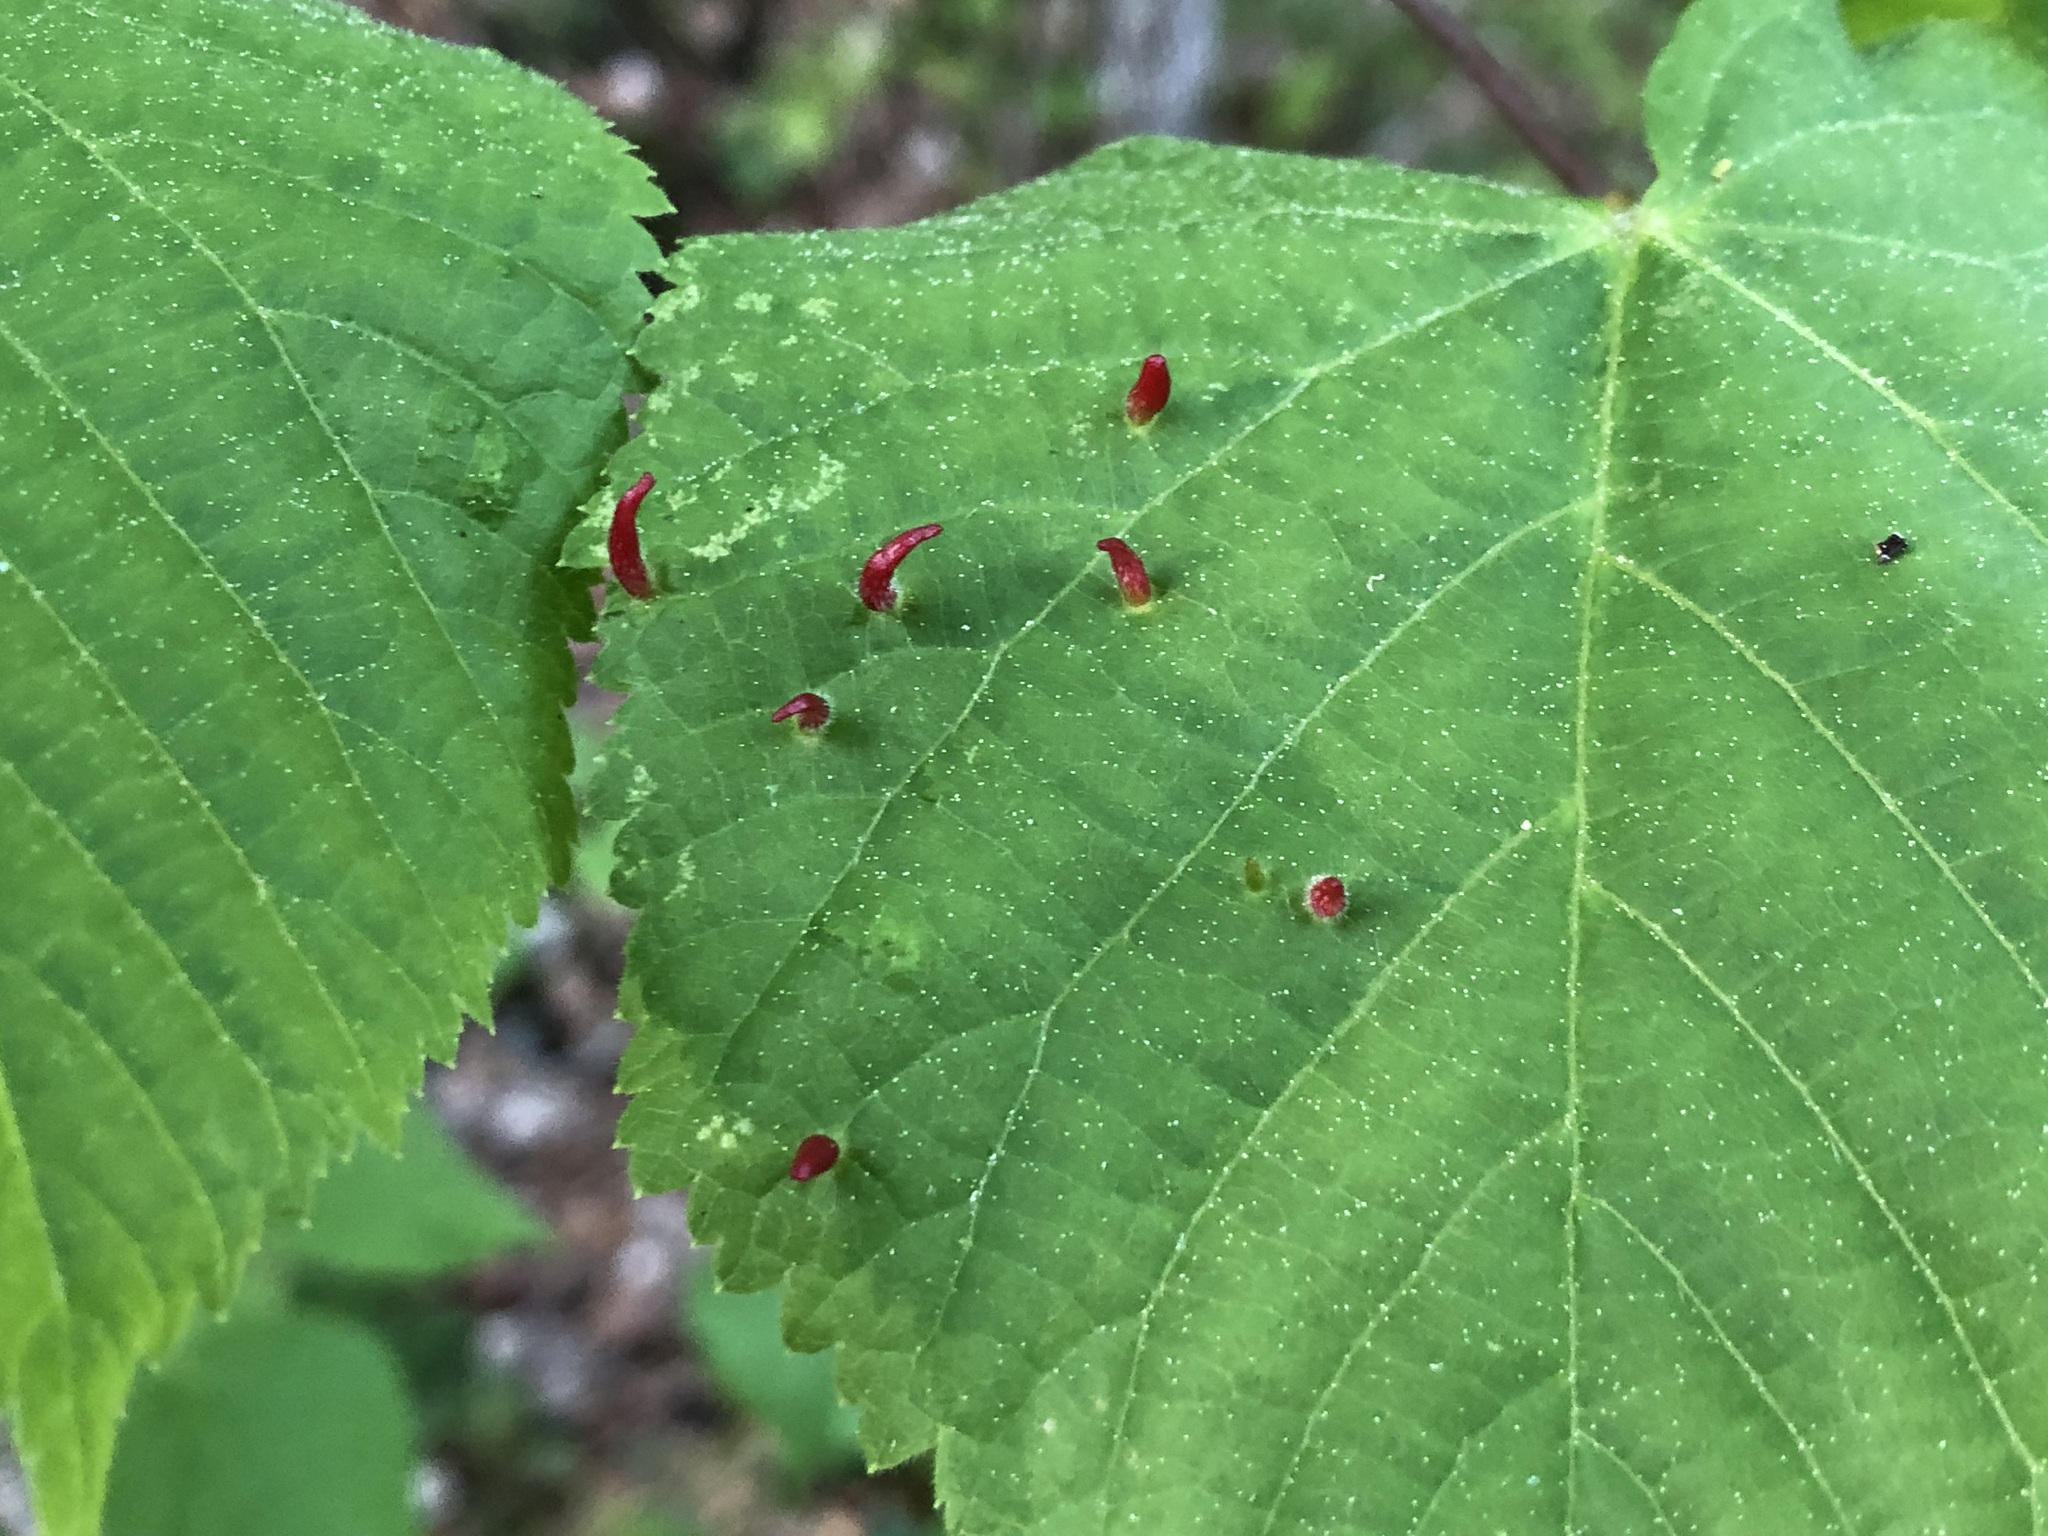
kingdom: Animalia
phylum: Arthropoda
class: Arachnida
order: Trombidiformes
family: Eriophyidae
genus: Eriophyes
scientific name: Eriophyes tiliae
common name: Red nail gall mite
